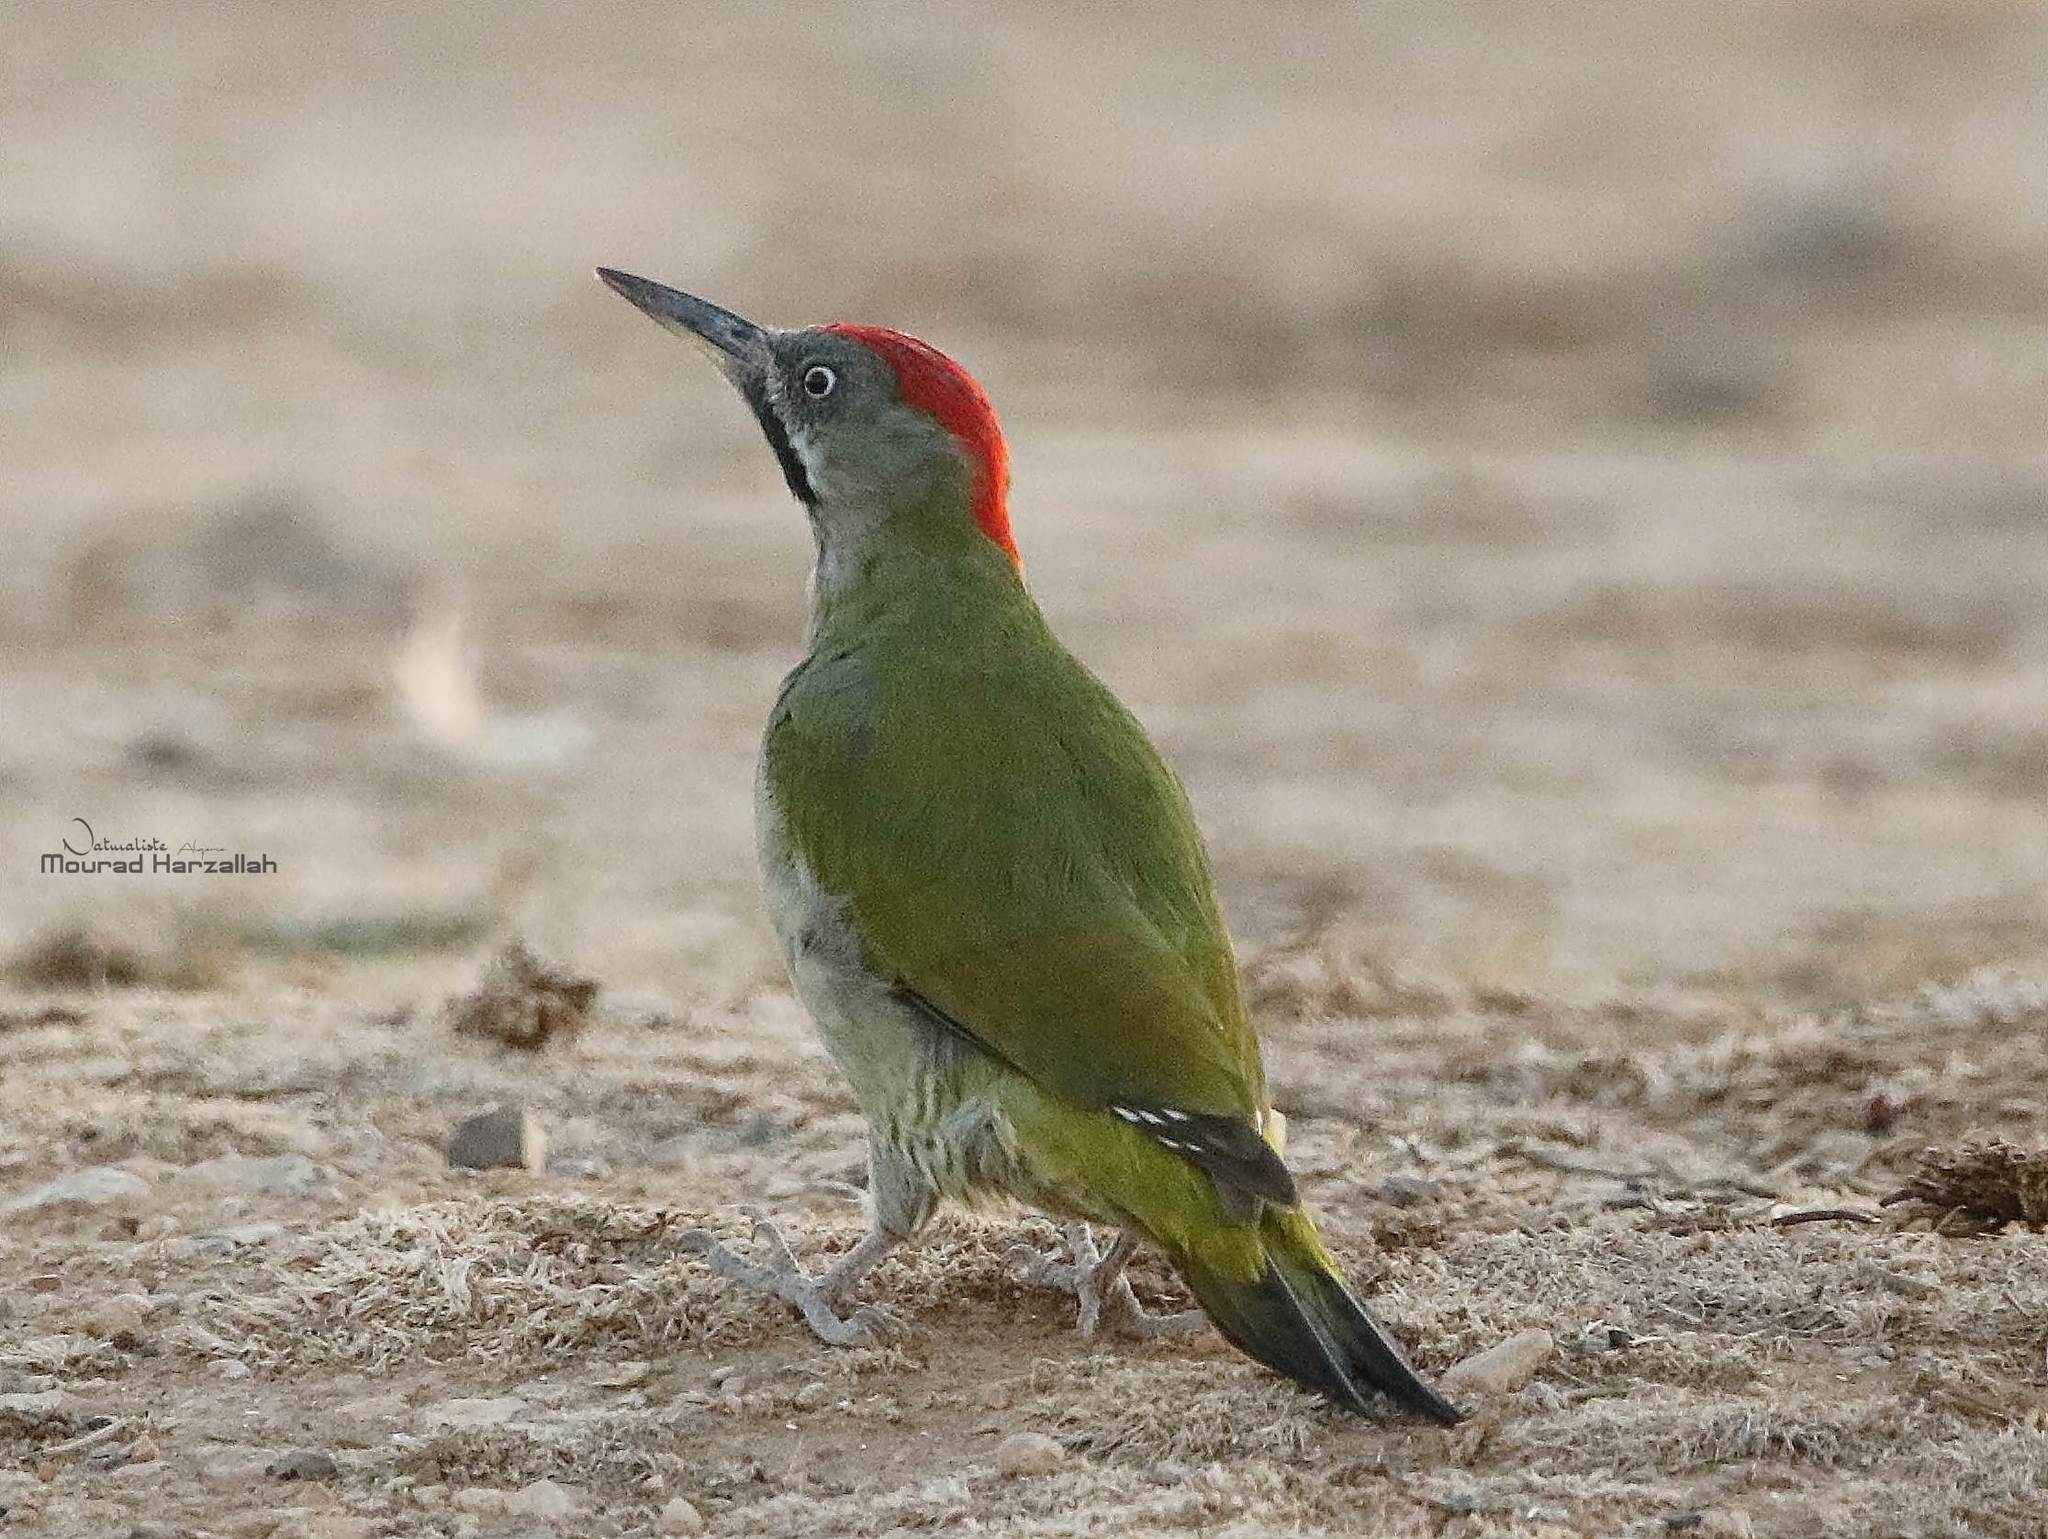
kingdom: Animalia
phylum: Chordata
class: Aves
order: Piciformes
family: Picidae
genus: Picus
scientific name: Picus vaillantii
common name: Levaillant's woodpecker
